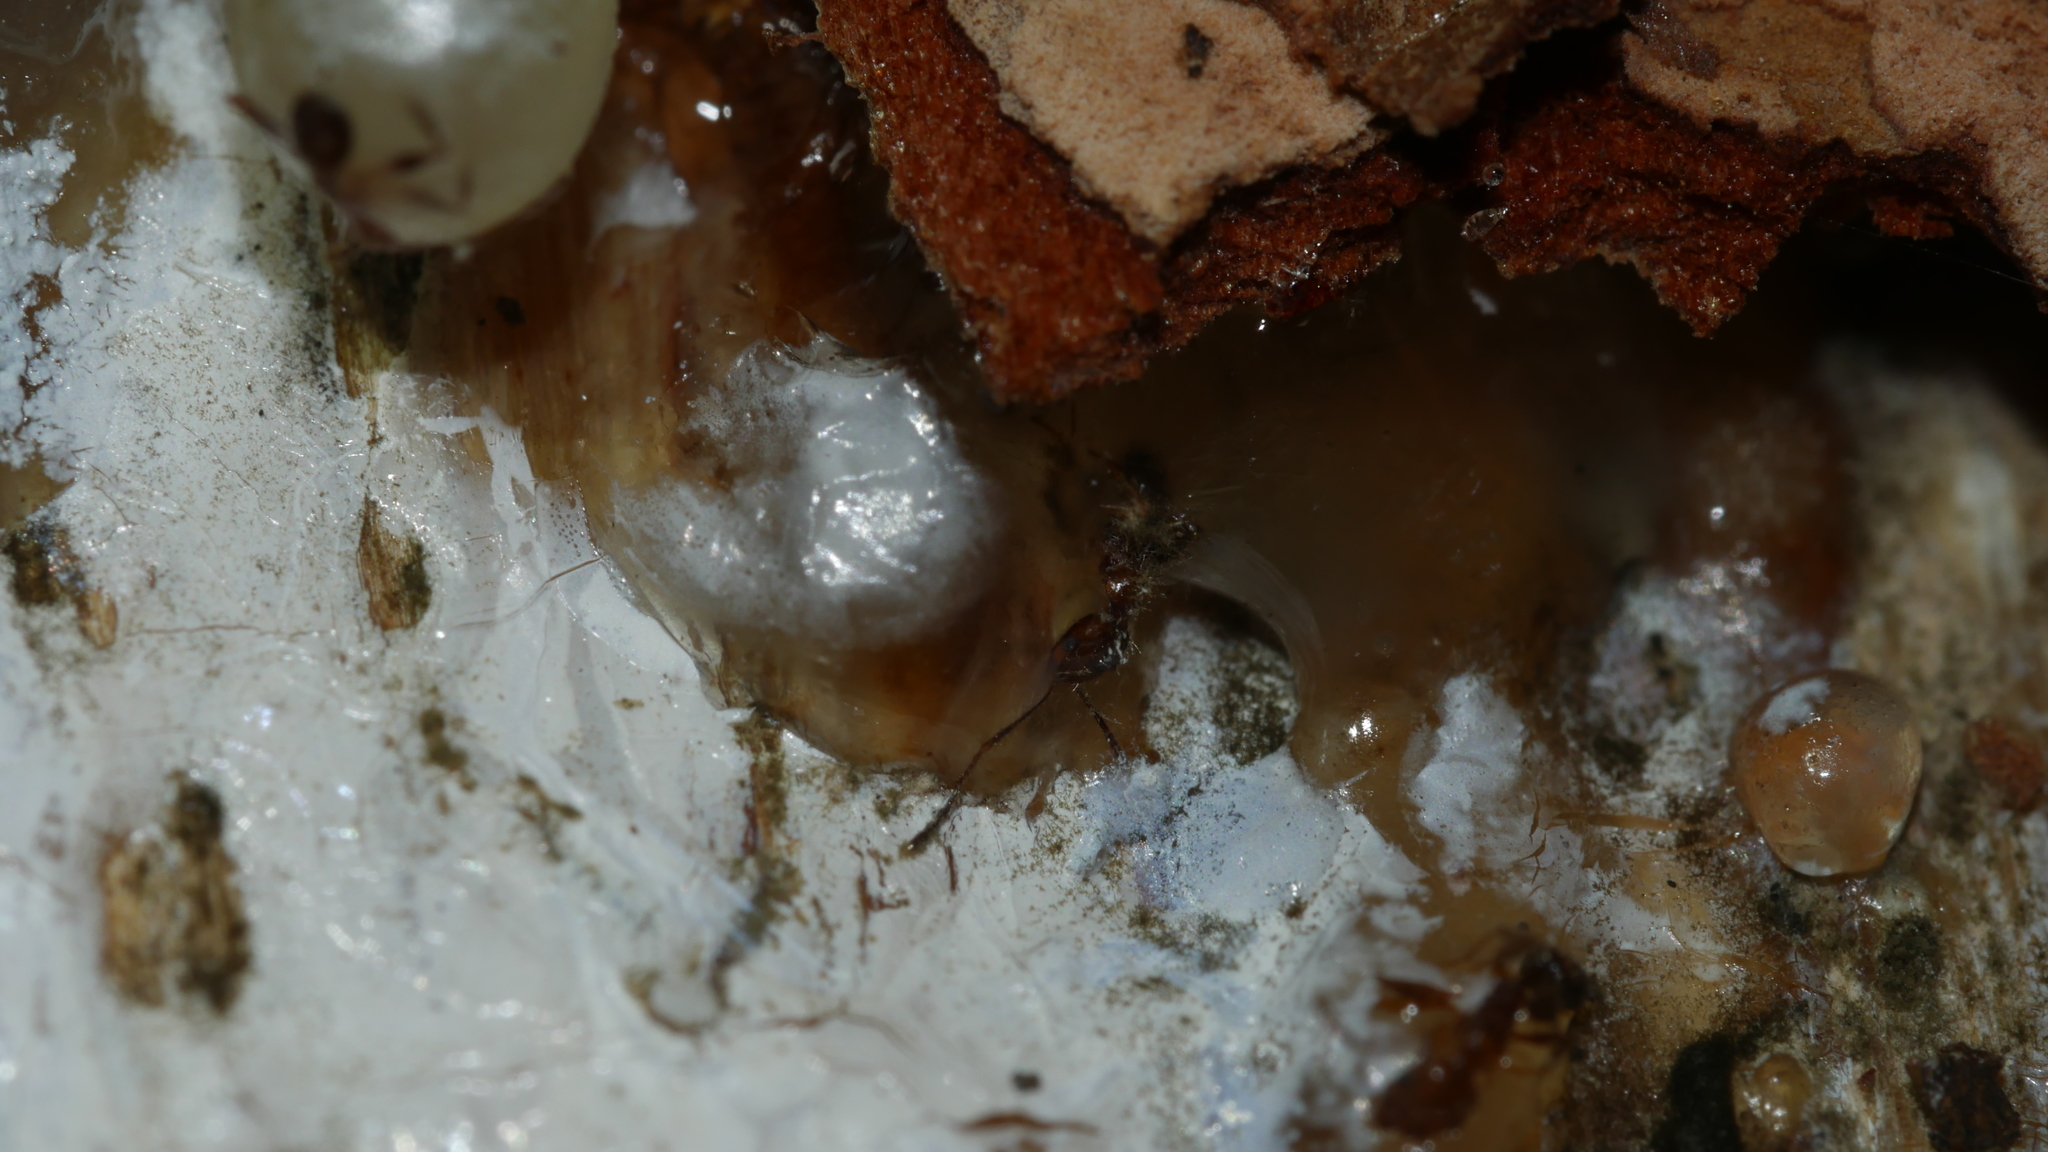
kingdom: Animalia
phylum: Arthropoda
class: Insecta
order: Hymenoptera
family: Formicidae
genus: Pheidole
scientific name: Pheidole dentata
